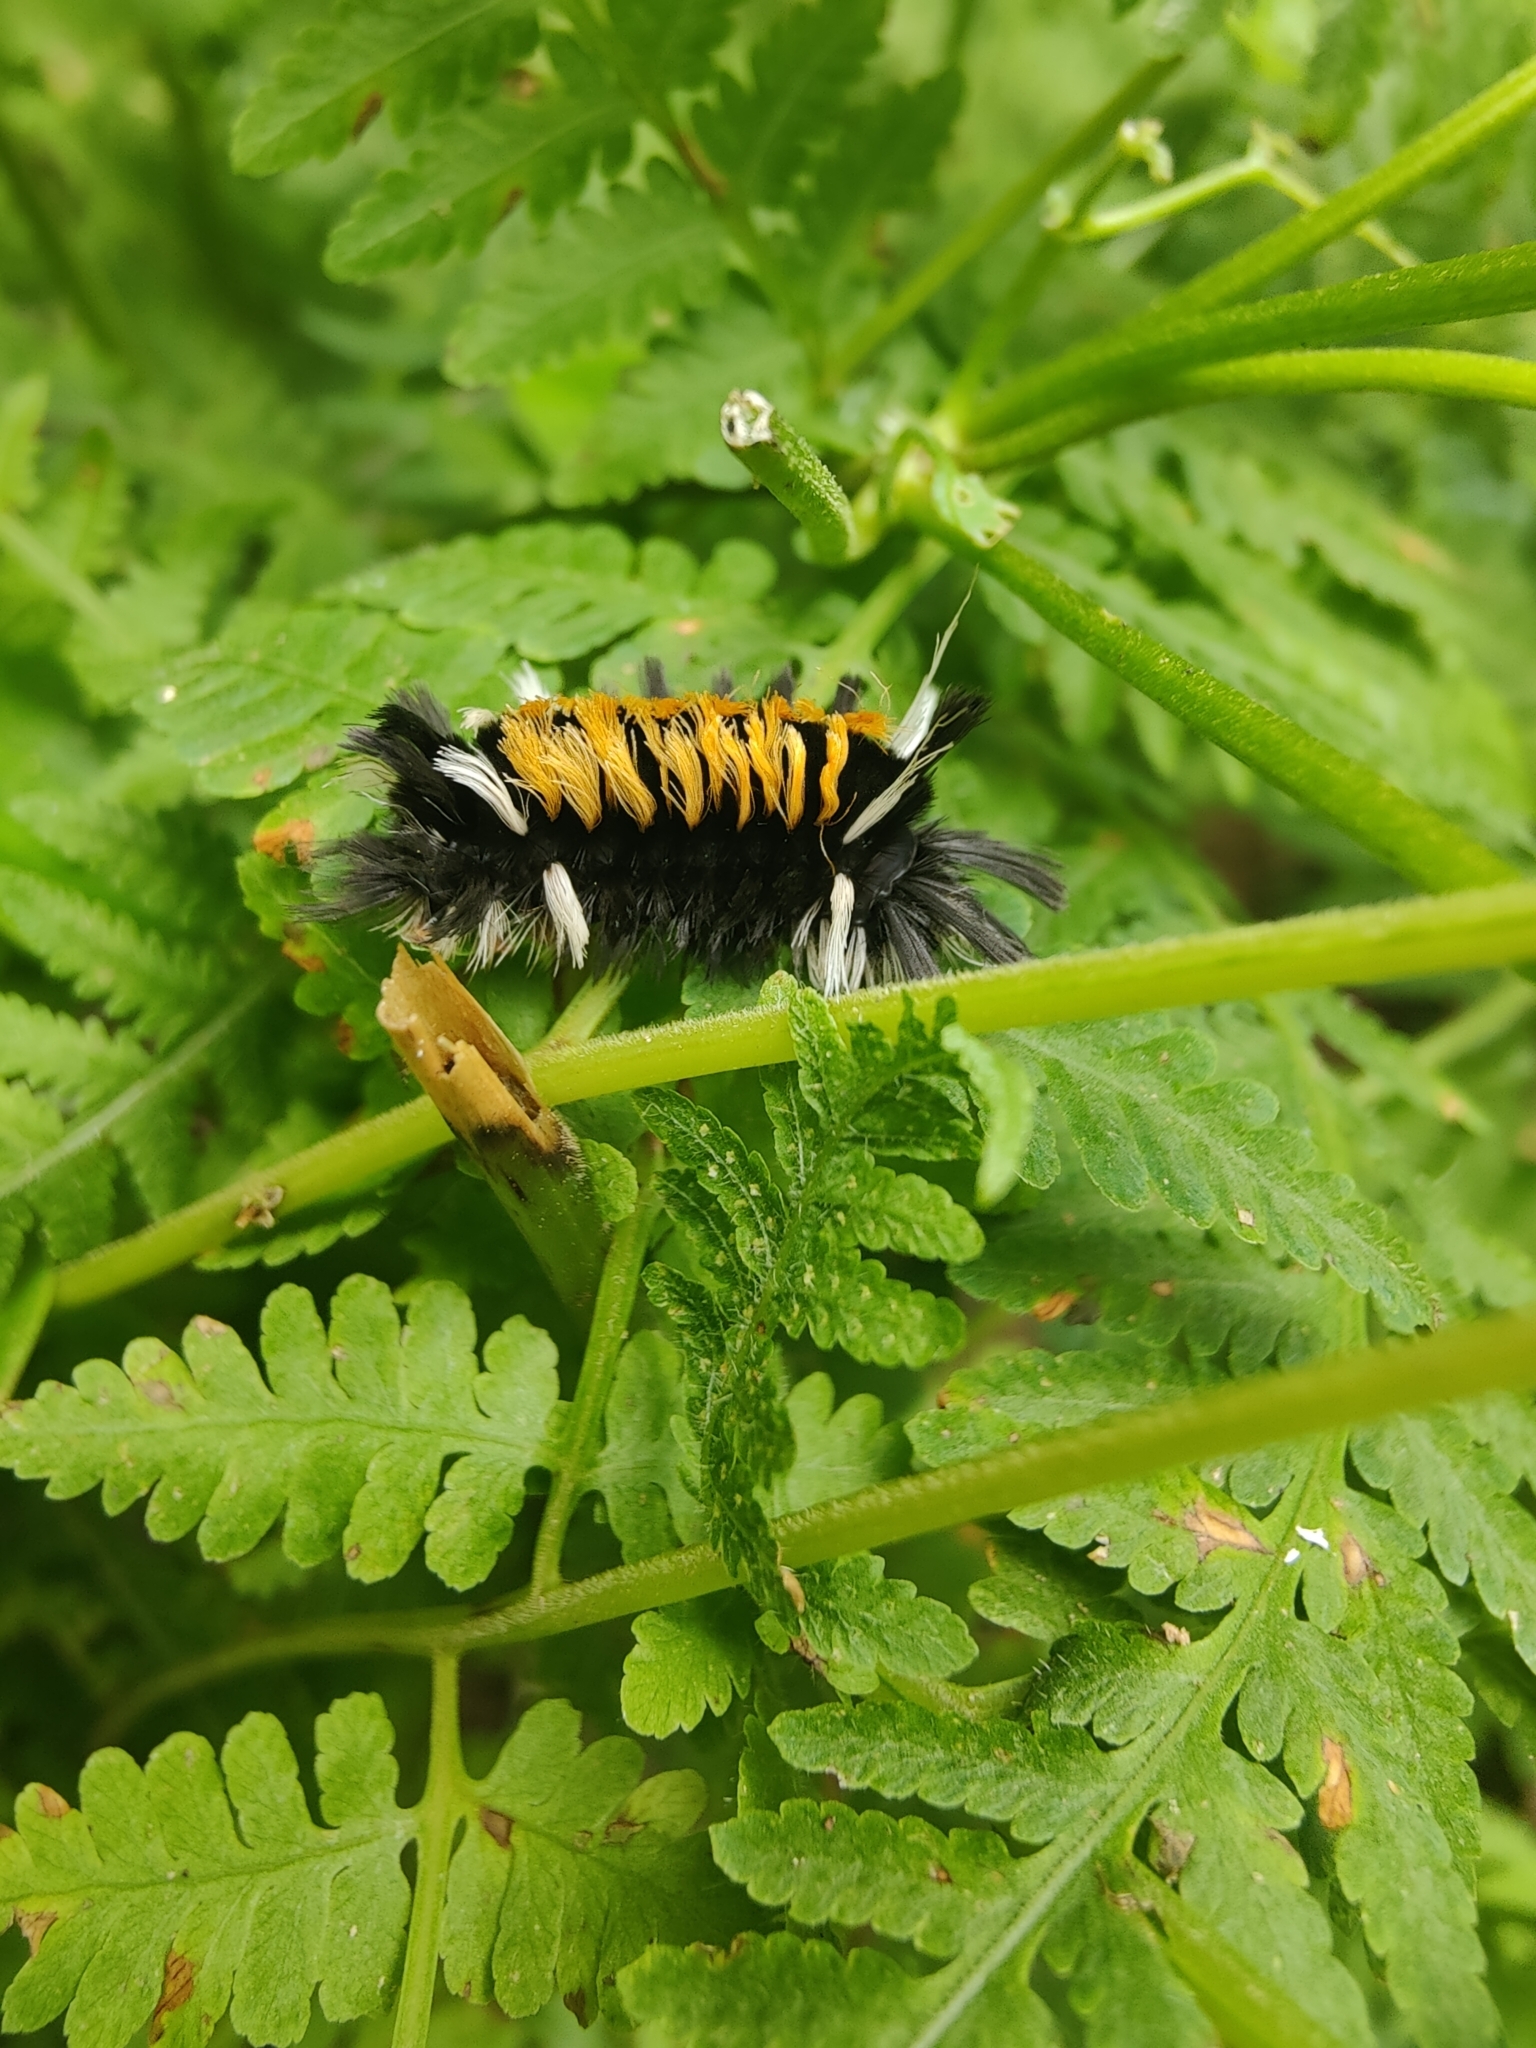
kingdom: Animalia
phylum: Arthropoda
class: Insecta
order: Lepidoptera
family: Erebidae
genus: Euchaetes
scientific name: Euchaetes egle
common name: Milkweed tussock moth
